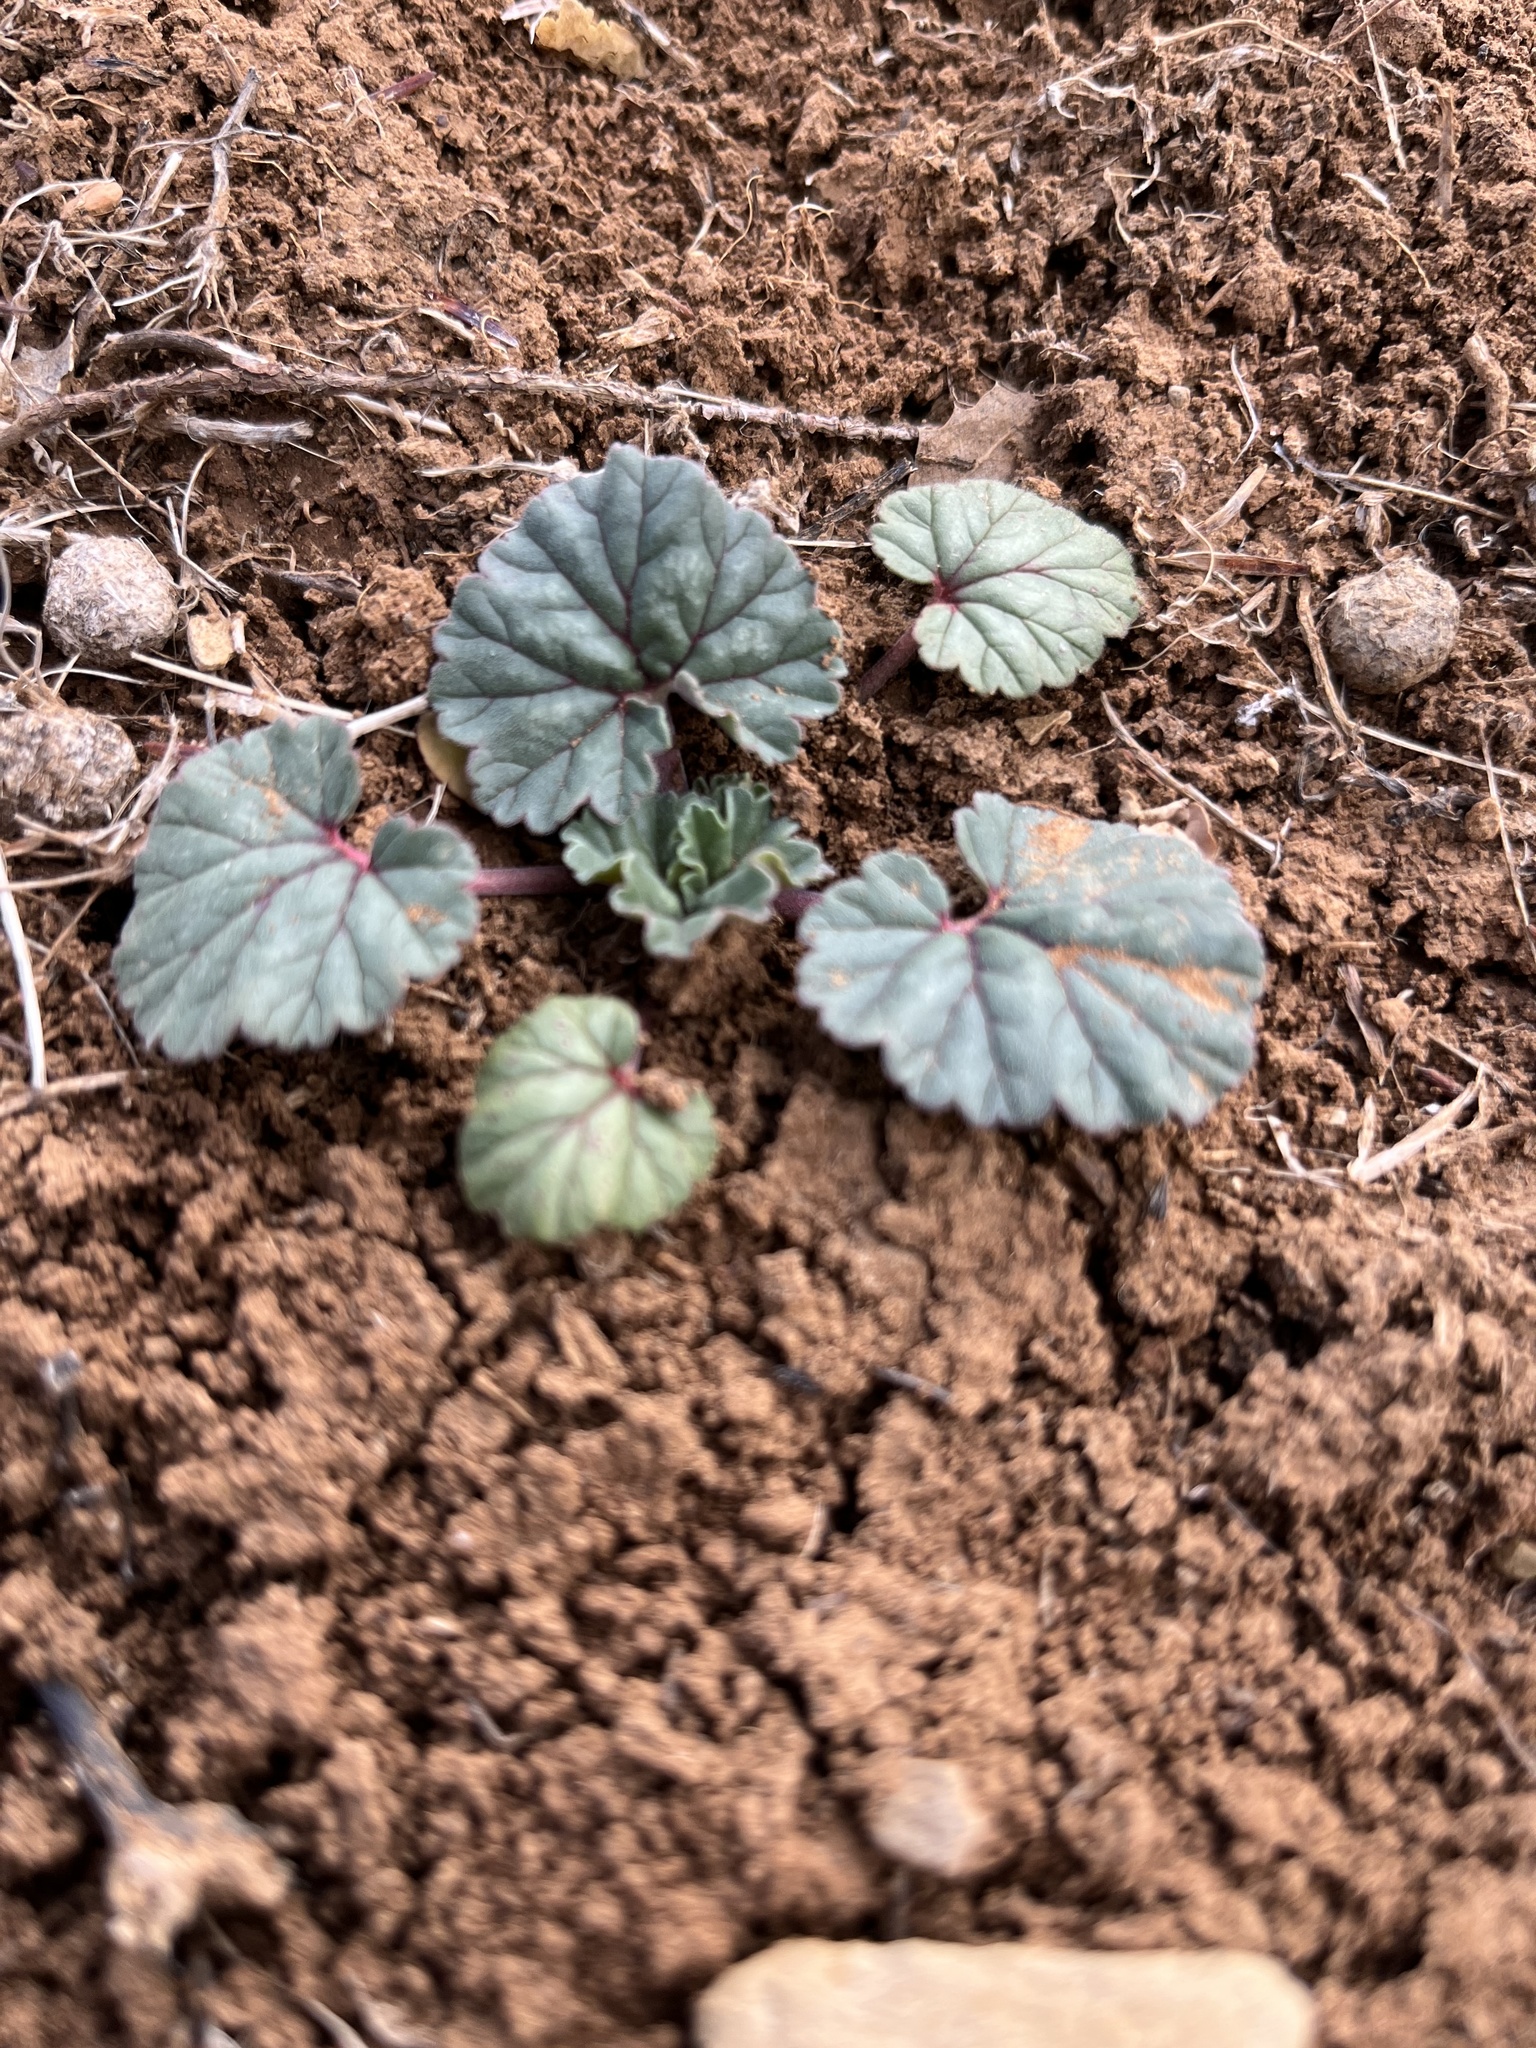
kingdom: Plantae
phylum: Tracheophyta
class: Magnoliopsida
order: Geraniales
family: Geraniaceae
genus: California
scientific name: California macrophylla
